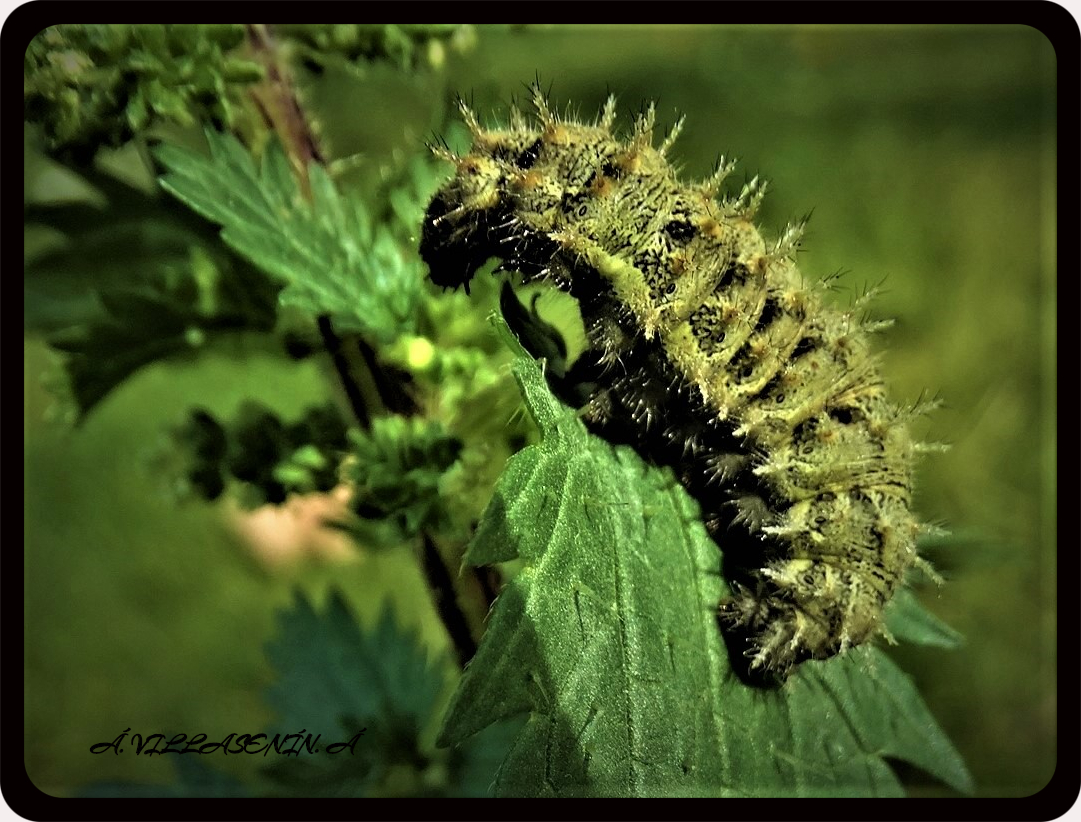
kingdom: Animalia
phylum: Arthropoda
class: Insecta
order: Lepidoptera
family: Nymphalidae
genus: Vanessa
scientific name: Vanessa atalanta
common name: Red admiral
